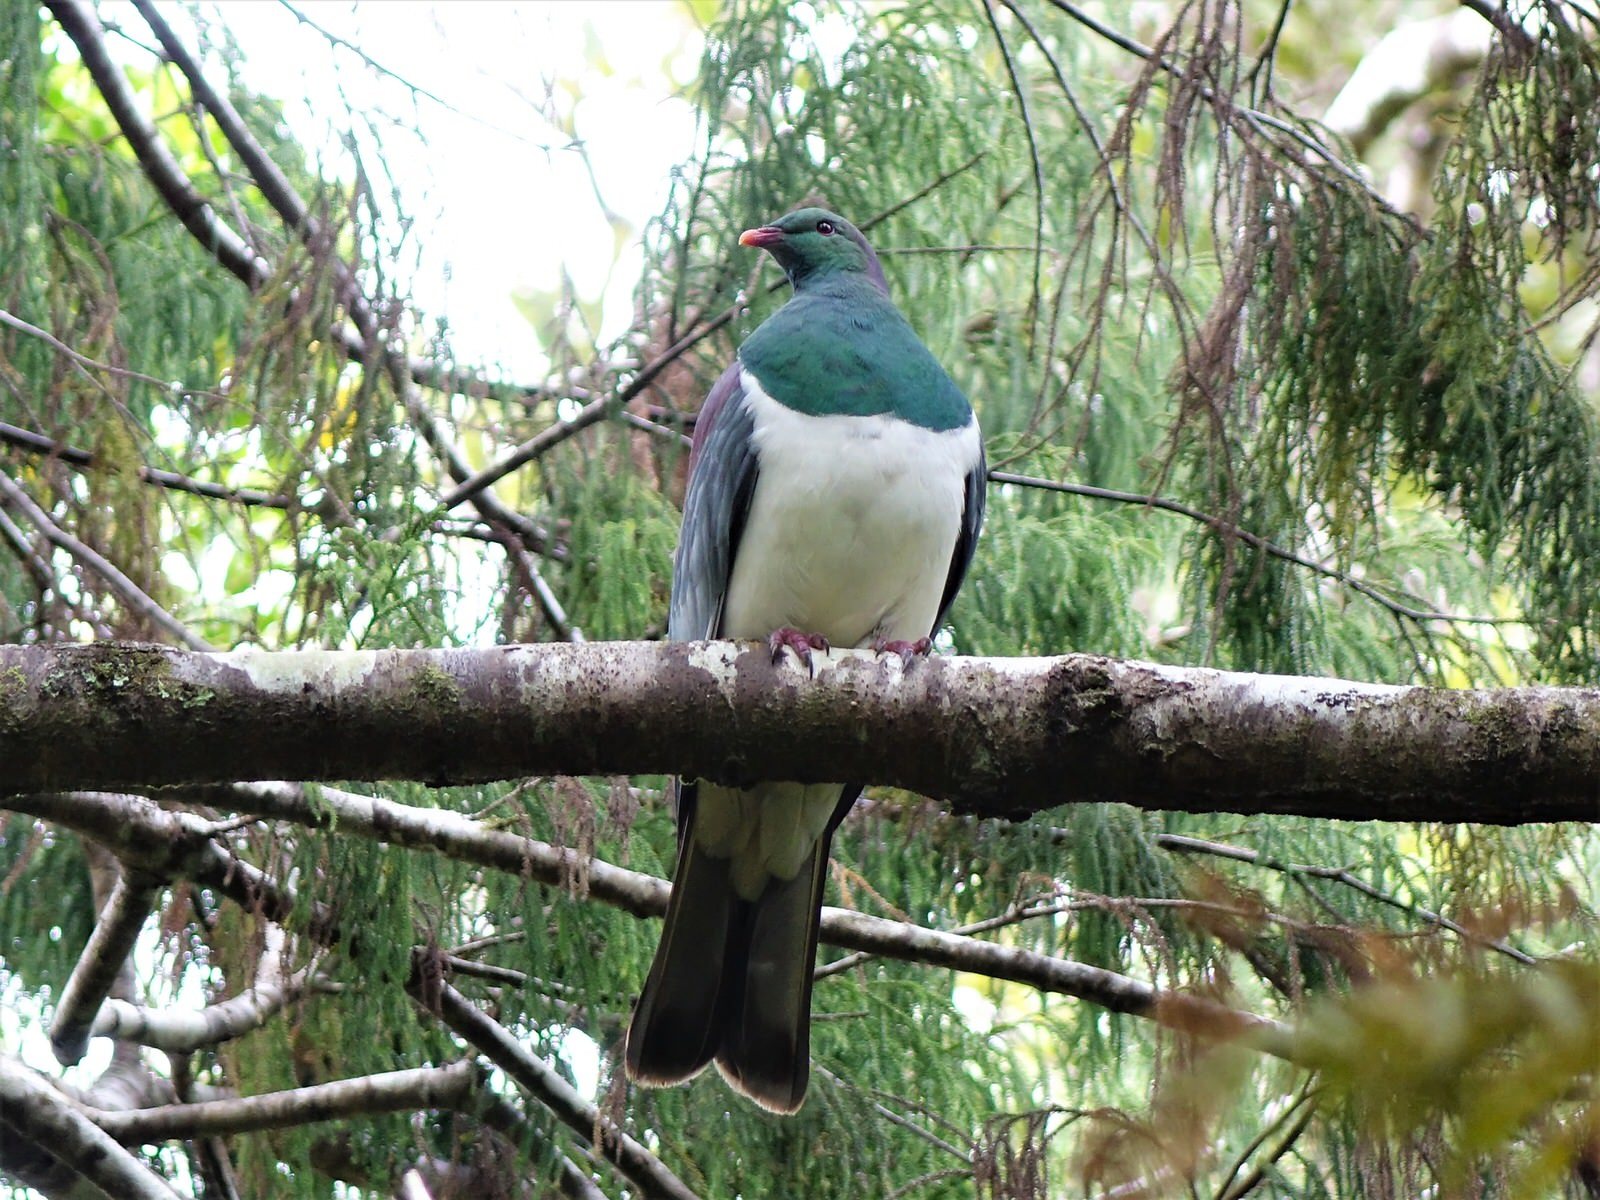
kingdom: Animalia
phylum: Chordata
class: Aves
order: Columbiformes
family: Columbidae
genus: Hemiphaga
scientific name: Hemiphaga novaeseelandiae
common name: New zealand pigeon
